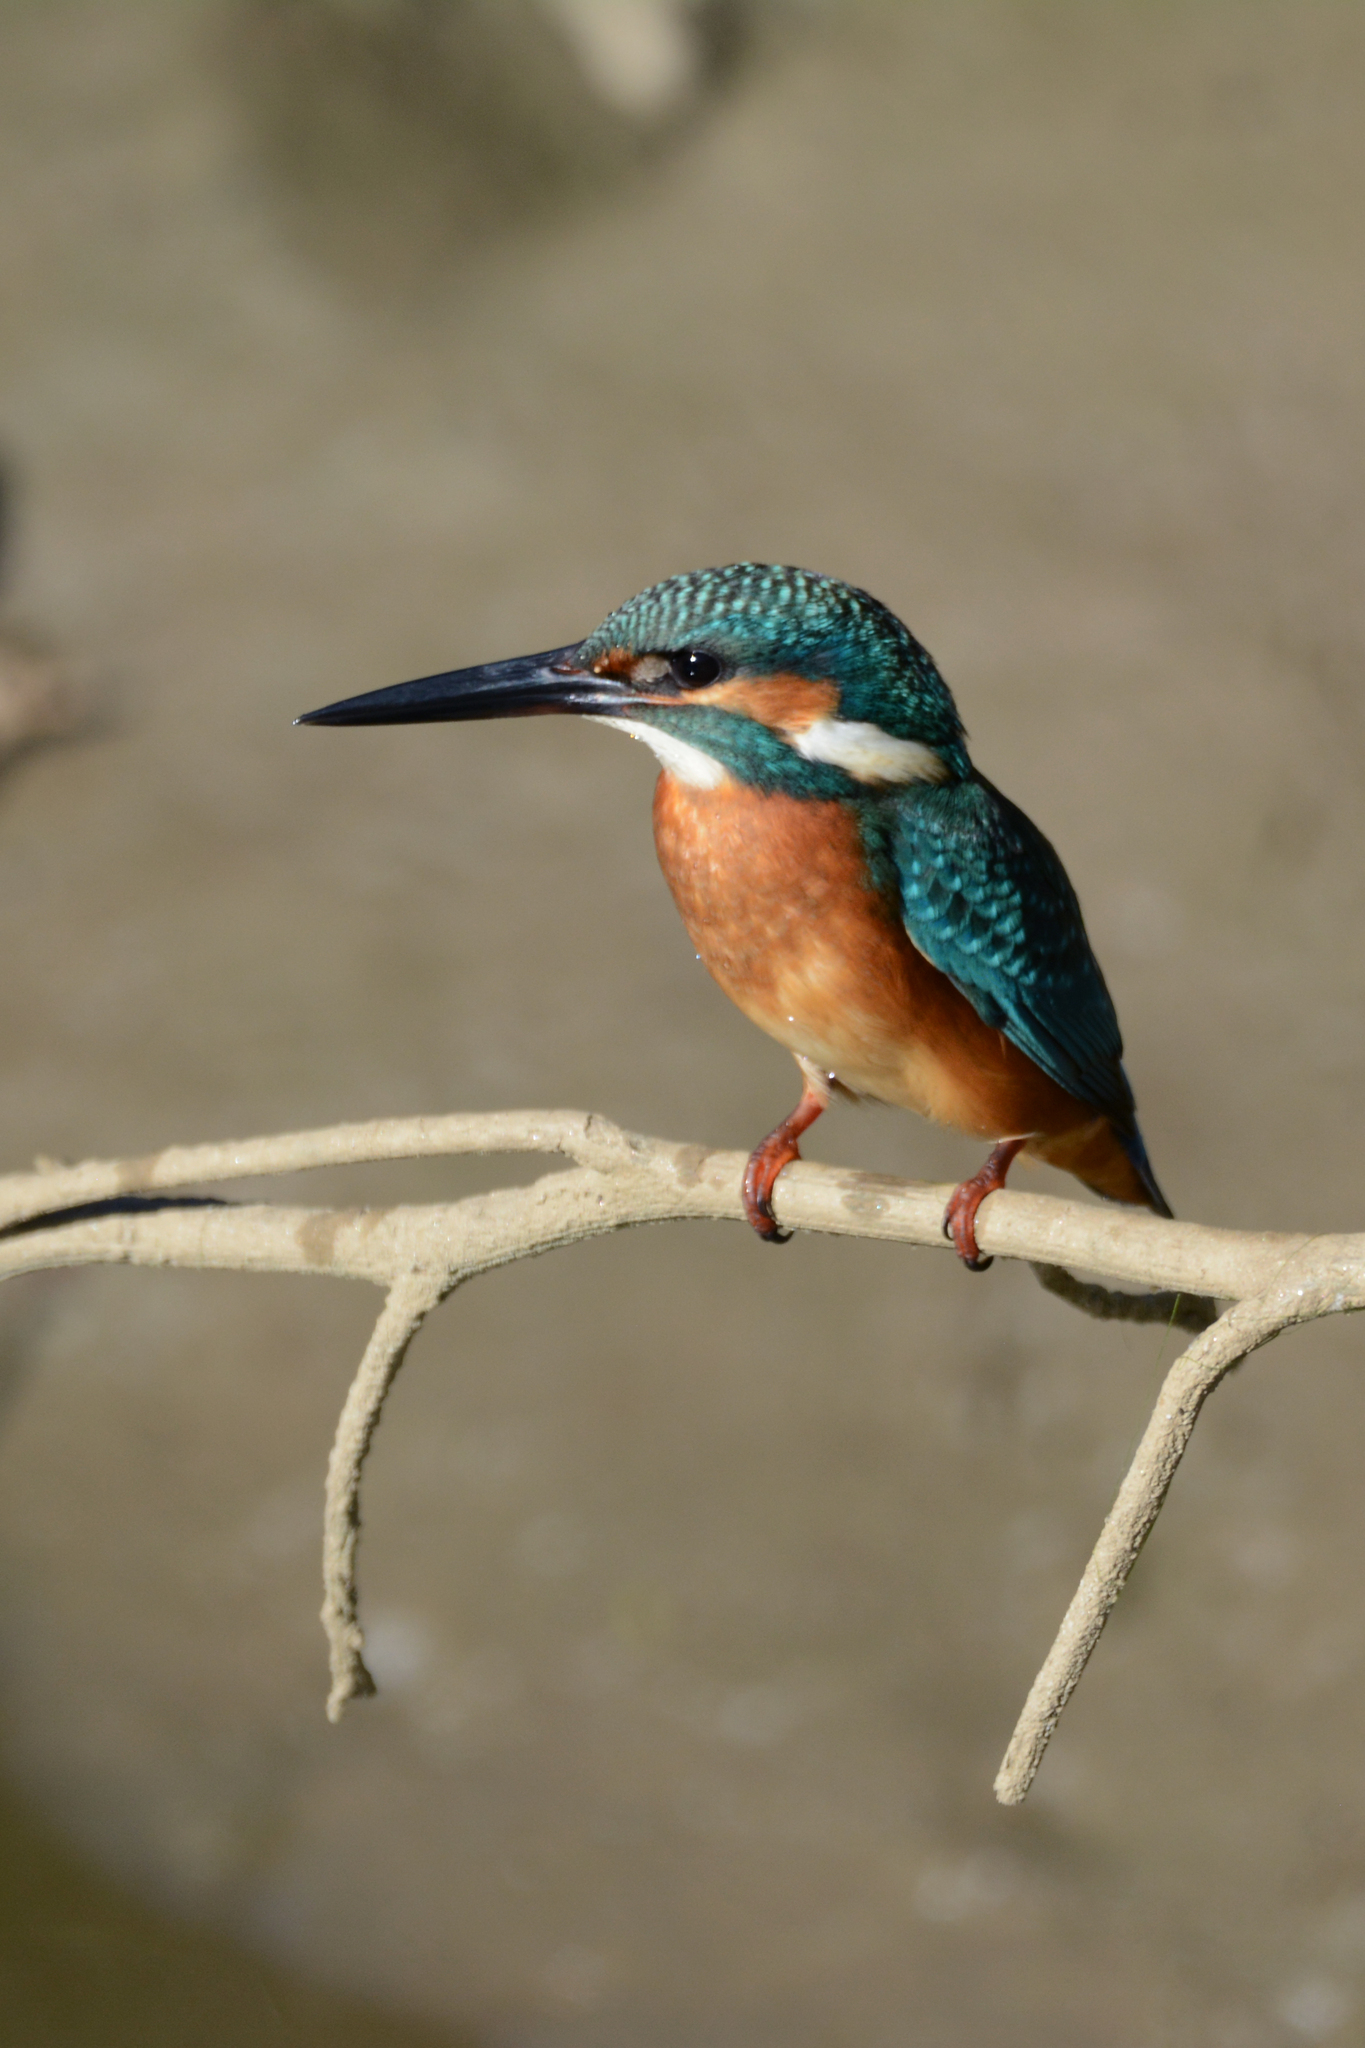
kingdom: Animalia
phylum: Chordata
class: Aves
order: Coraciiformes
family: Alcedinidae
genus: Alcedo
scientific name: Alcedo atthis
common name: Common kingfisher
